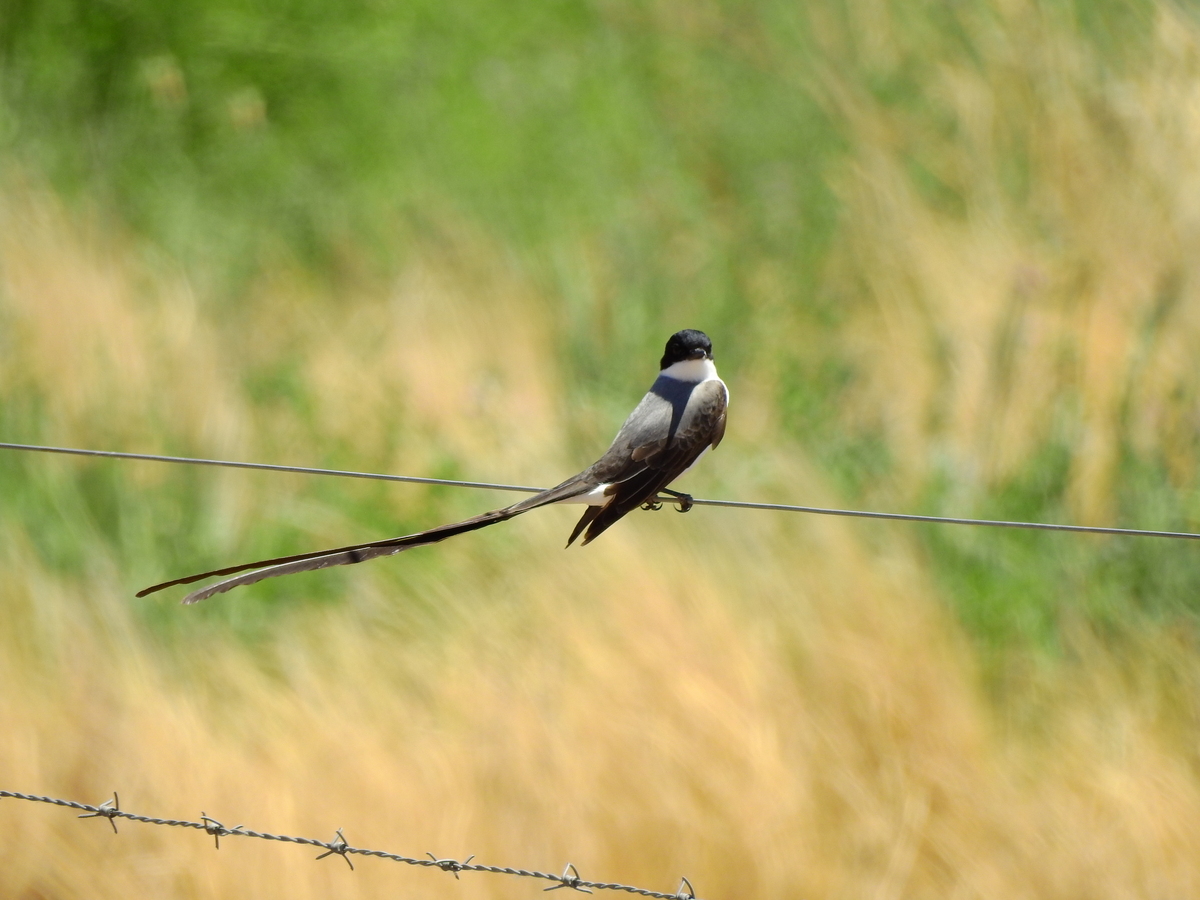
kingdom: Animalia
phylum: Chordata
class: Aves
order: Passeriformes
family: Tyrannidae
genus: Tyrannus
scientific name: Tyrannus savana
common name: Fork-tailed flycatcher
